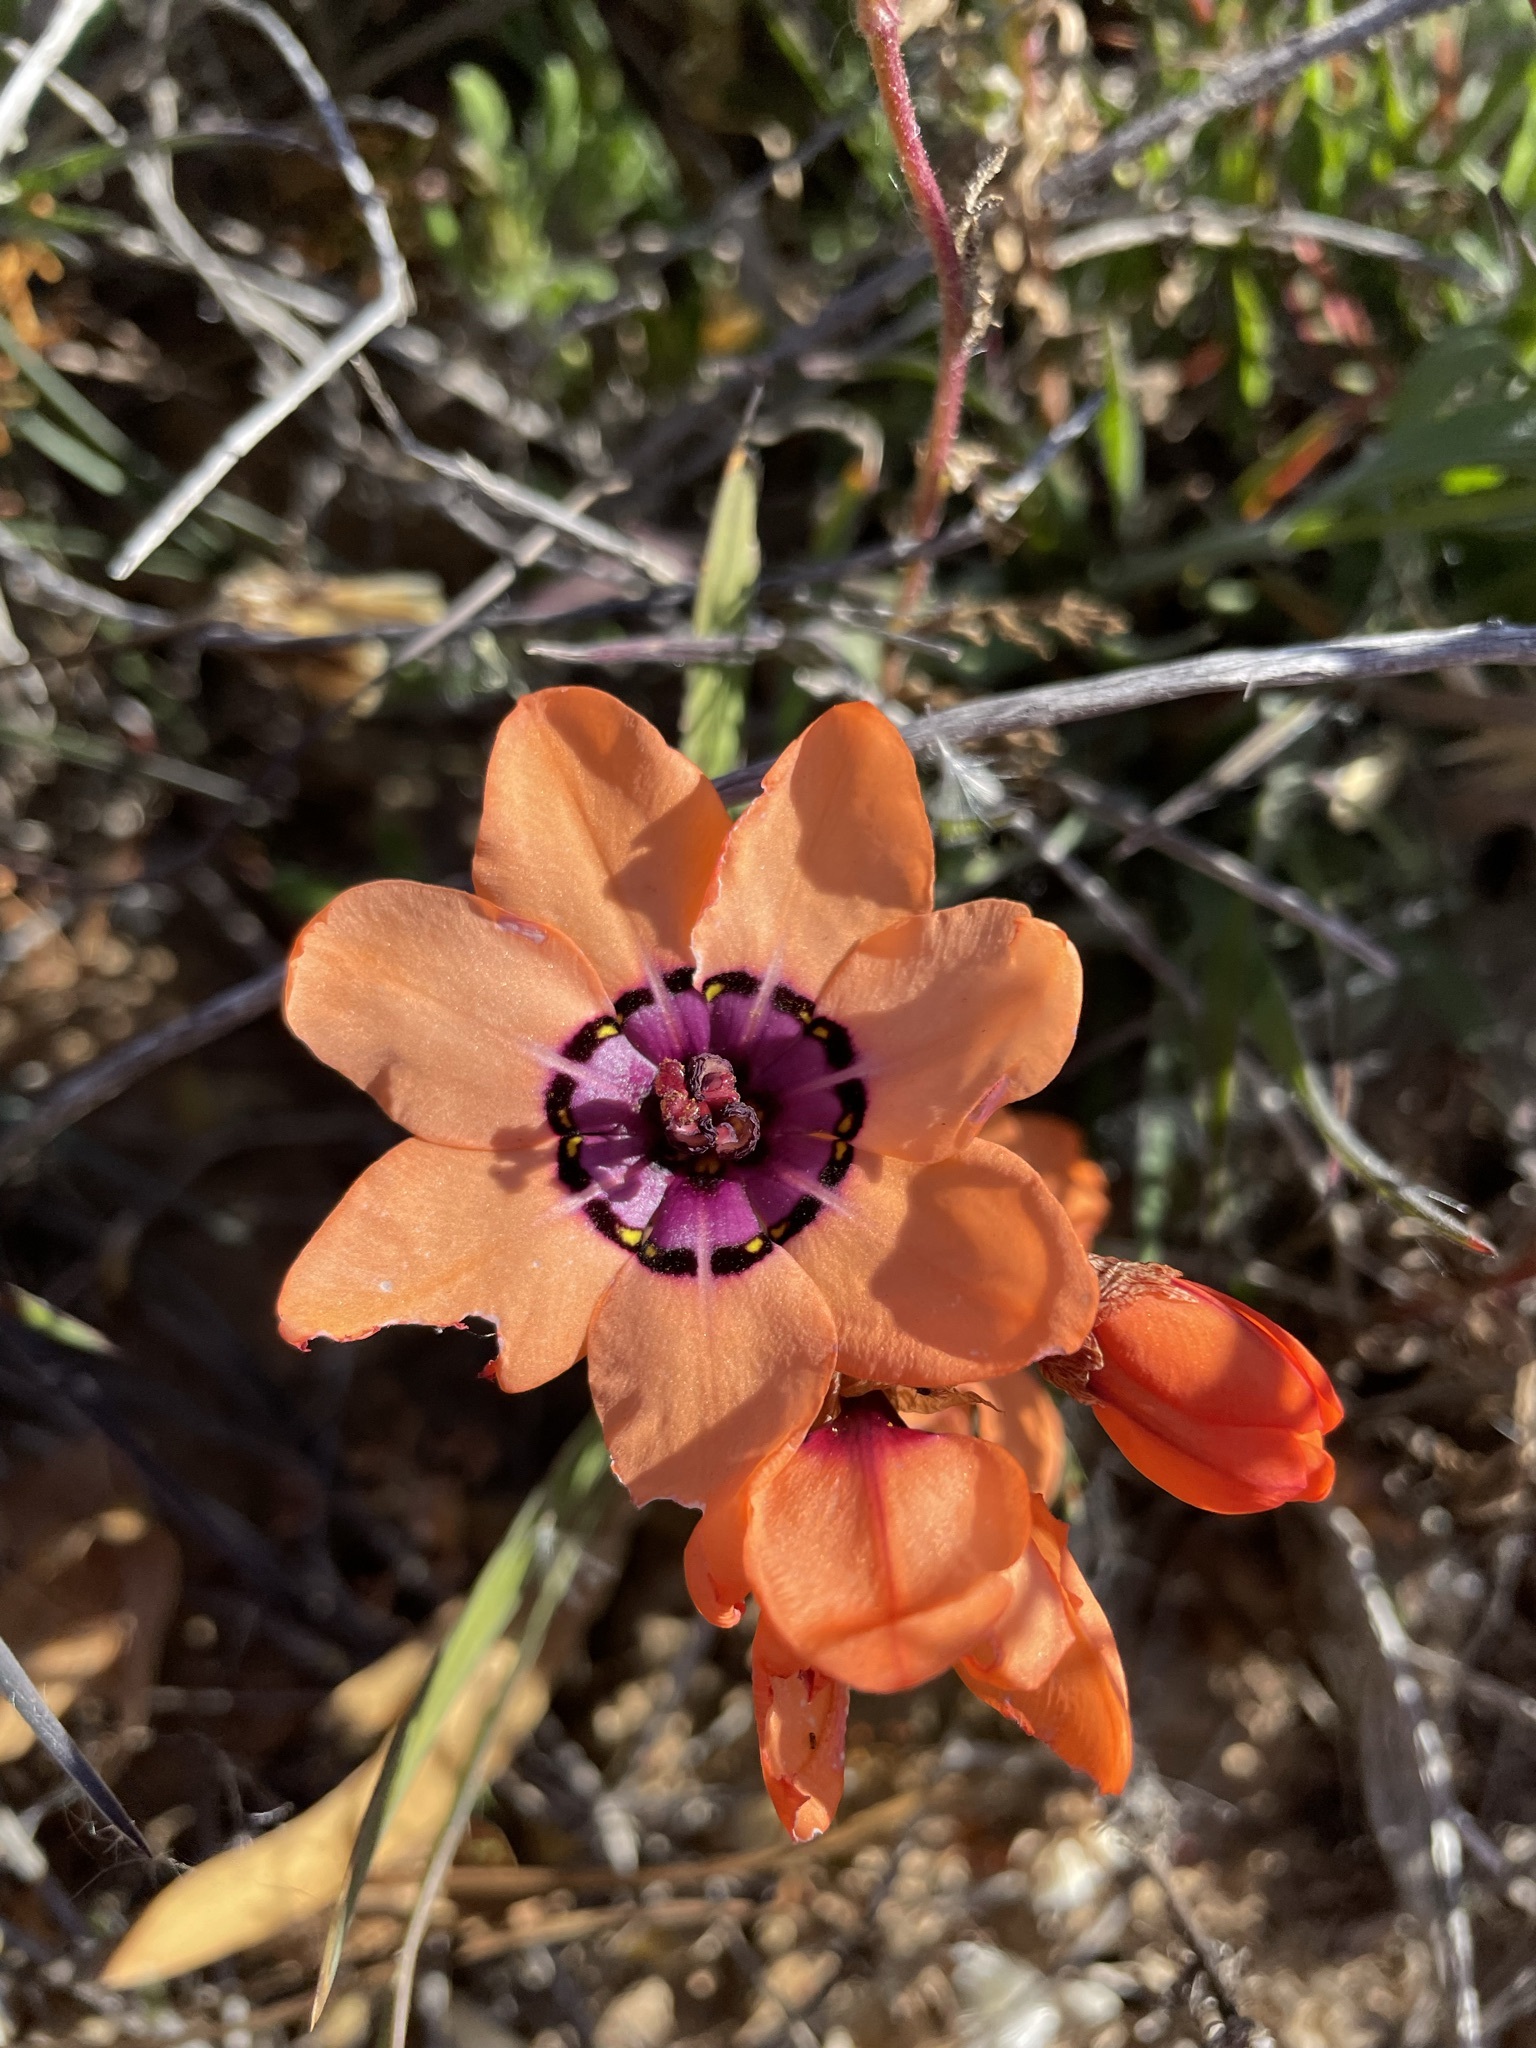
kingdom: Plantae
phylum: Tracheophyta
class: Liliopsida
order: Asparagales
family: Iridaceae
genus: Sparaxis
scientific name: Sparaxis elegans
